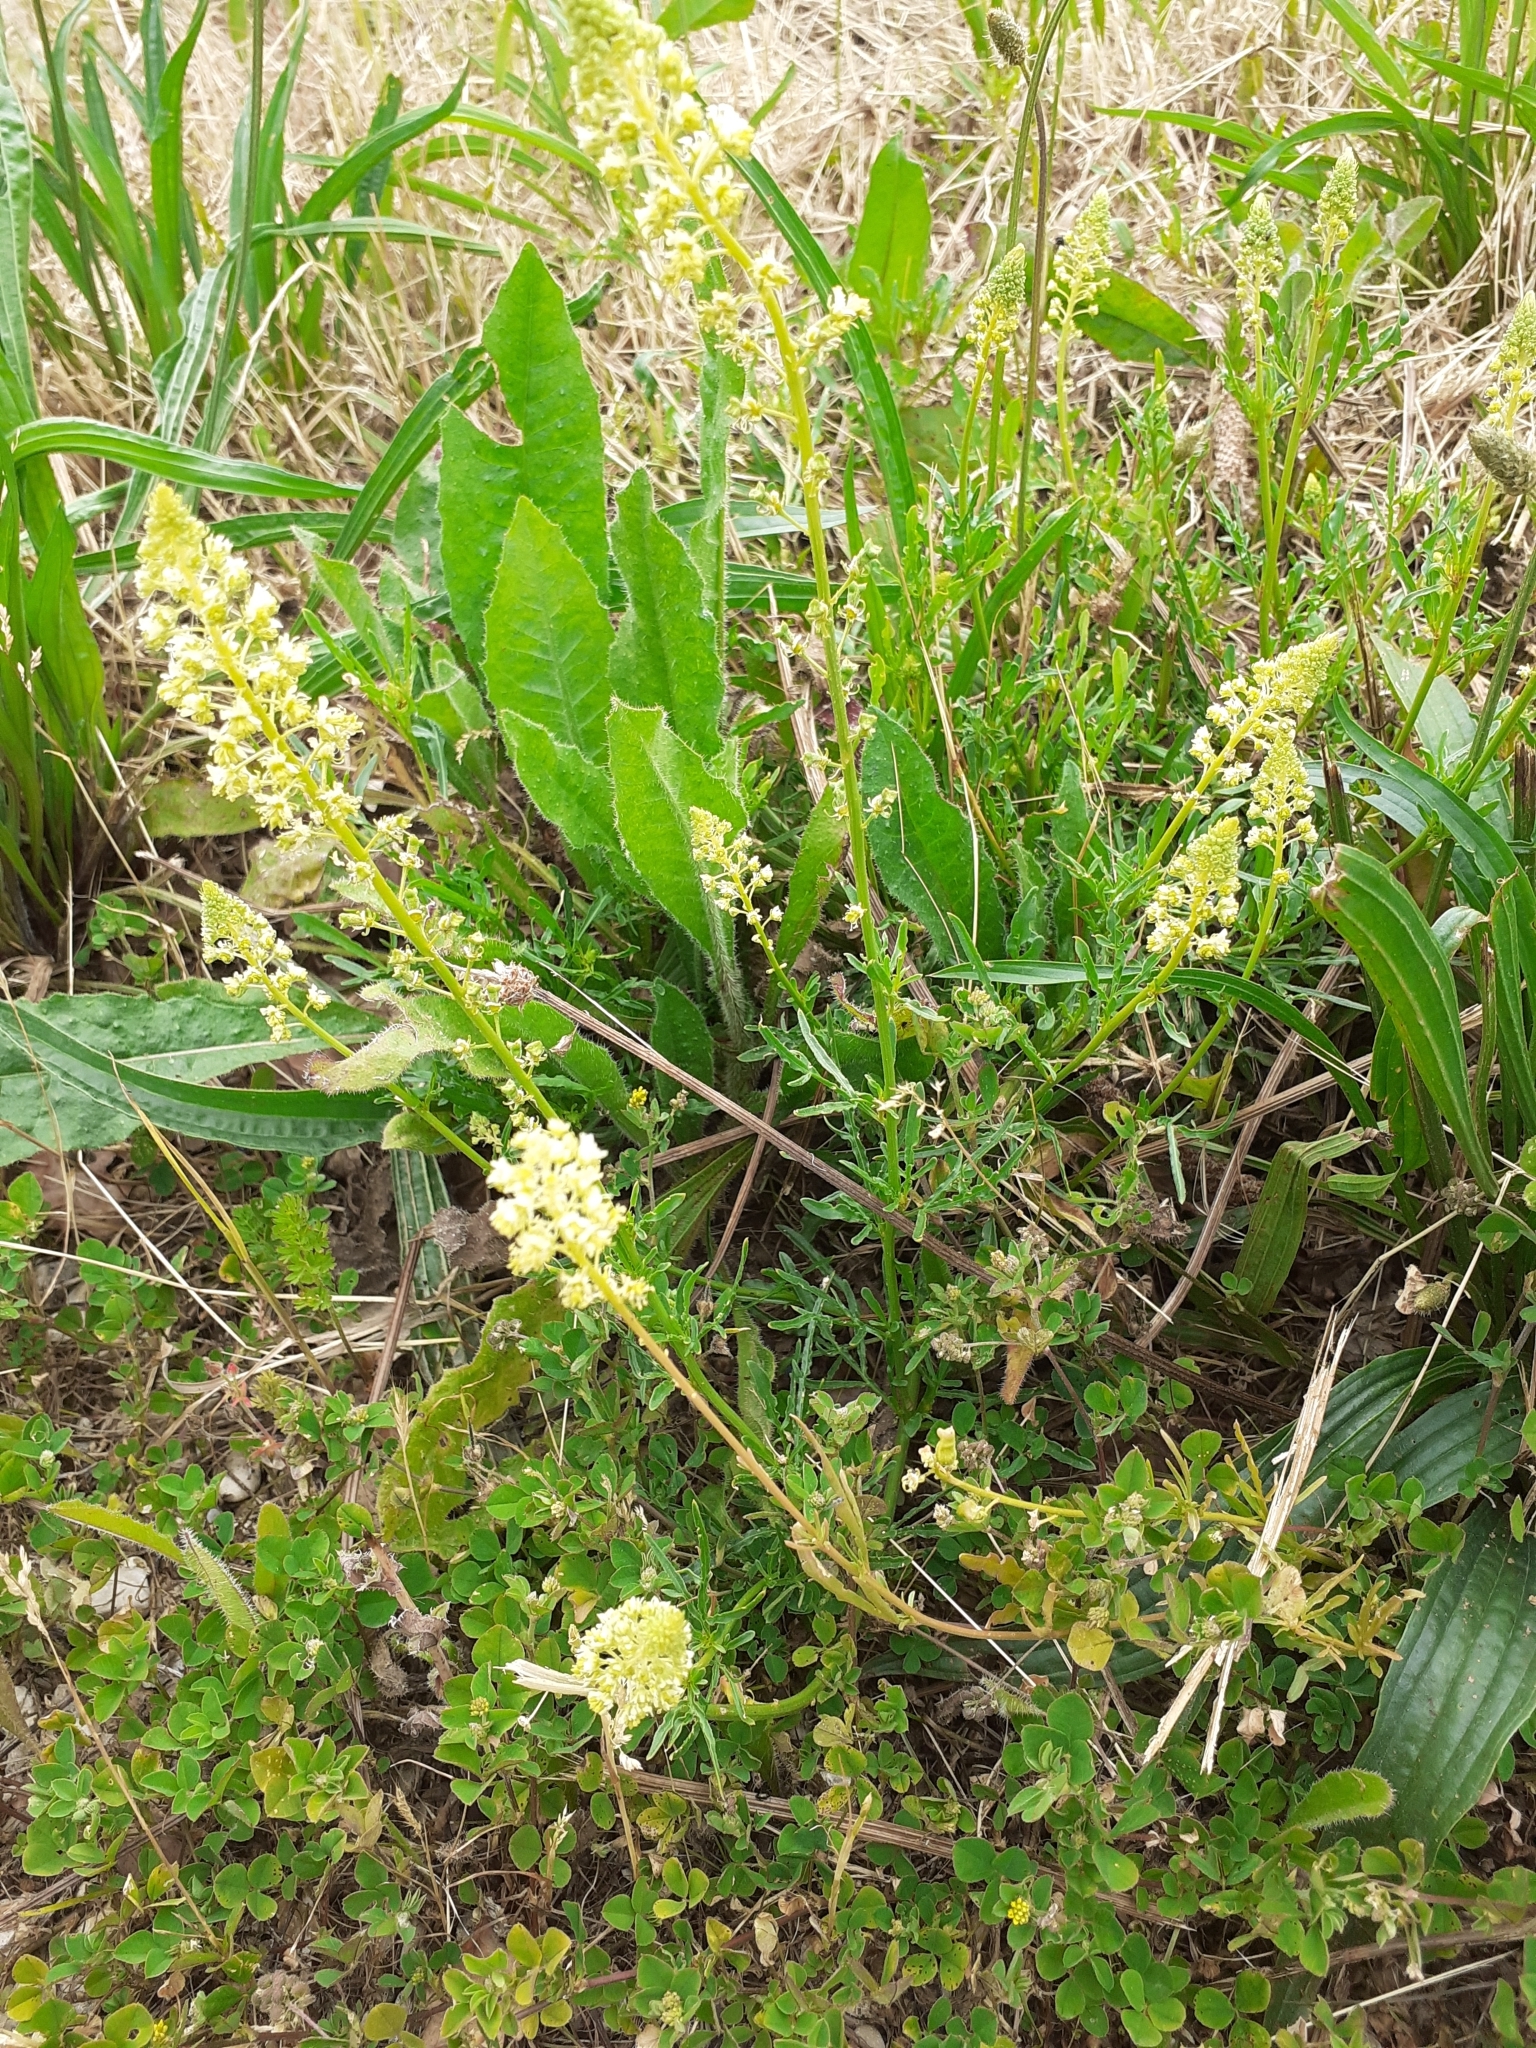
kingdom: Plantae
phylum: Tracheophyta
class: Magnoliopsida
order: Brassicales
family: Resedaceae
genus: Reseda
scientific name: Reseda lutea
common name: Wild mignonette
